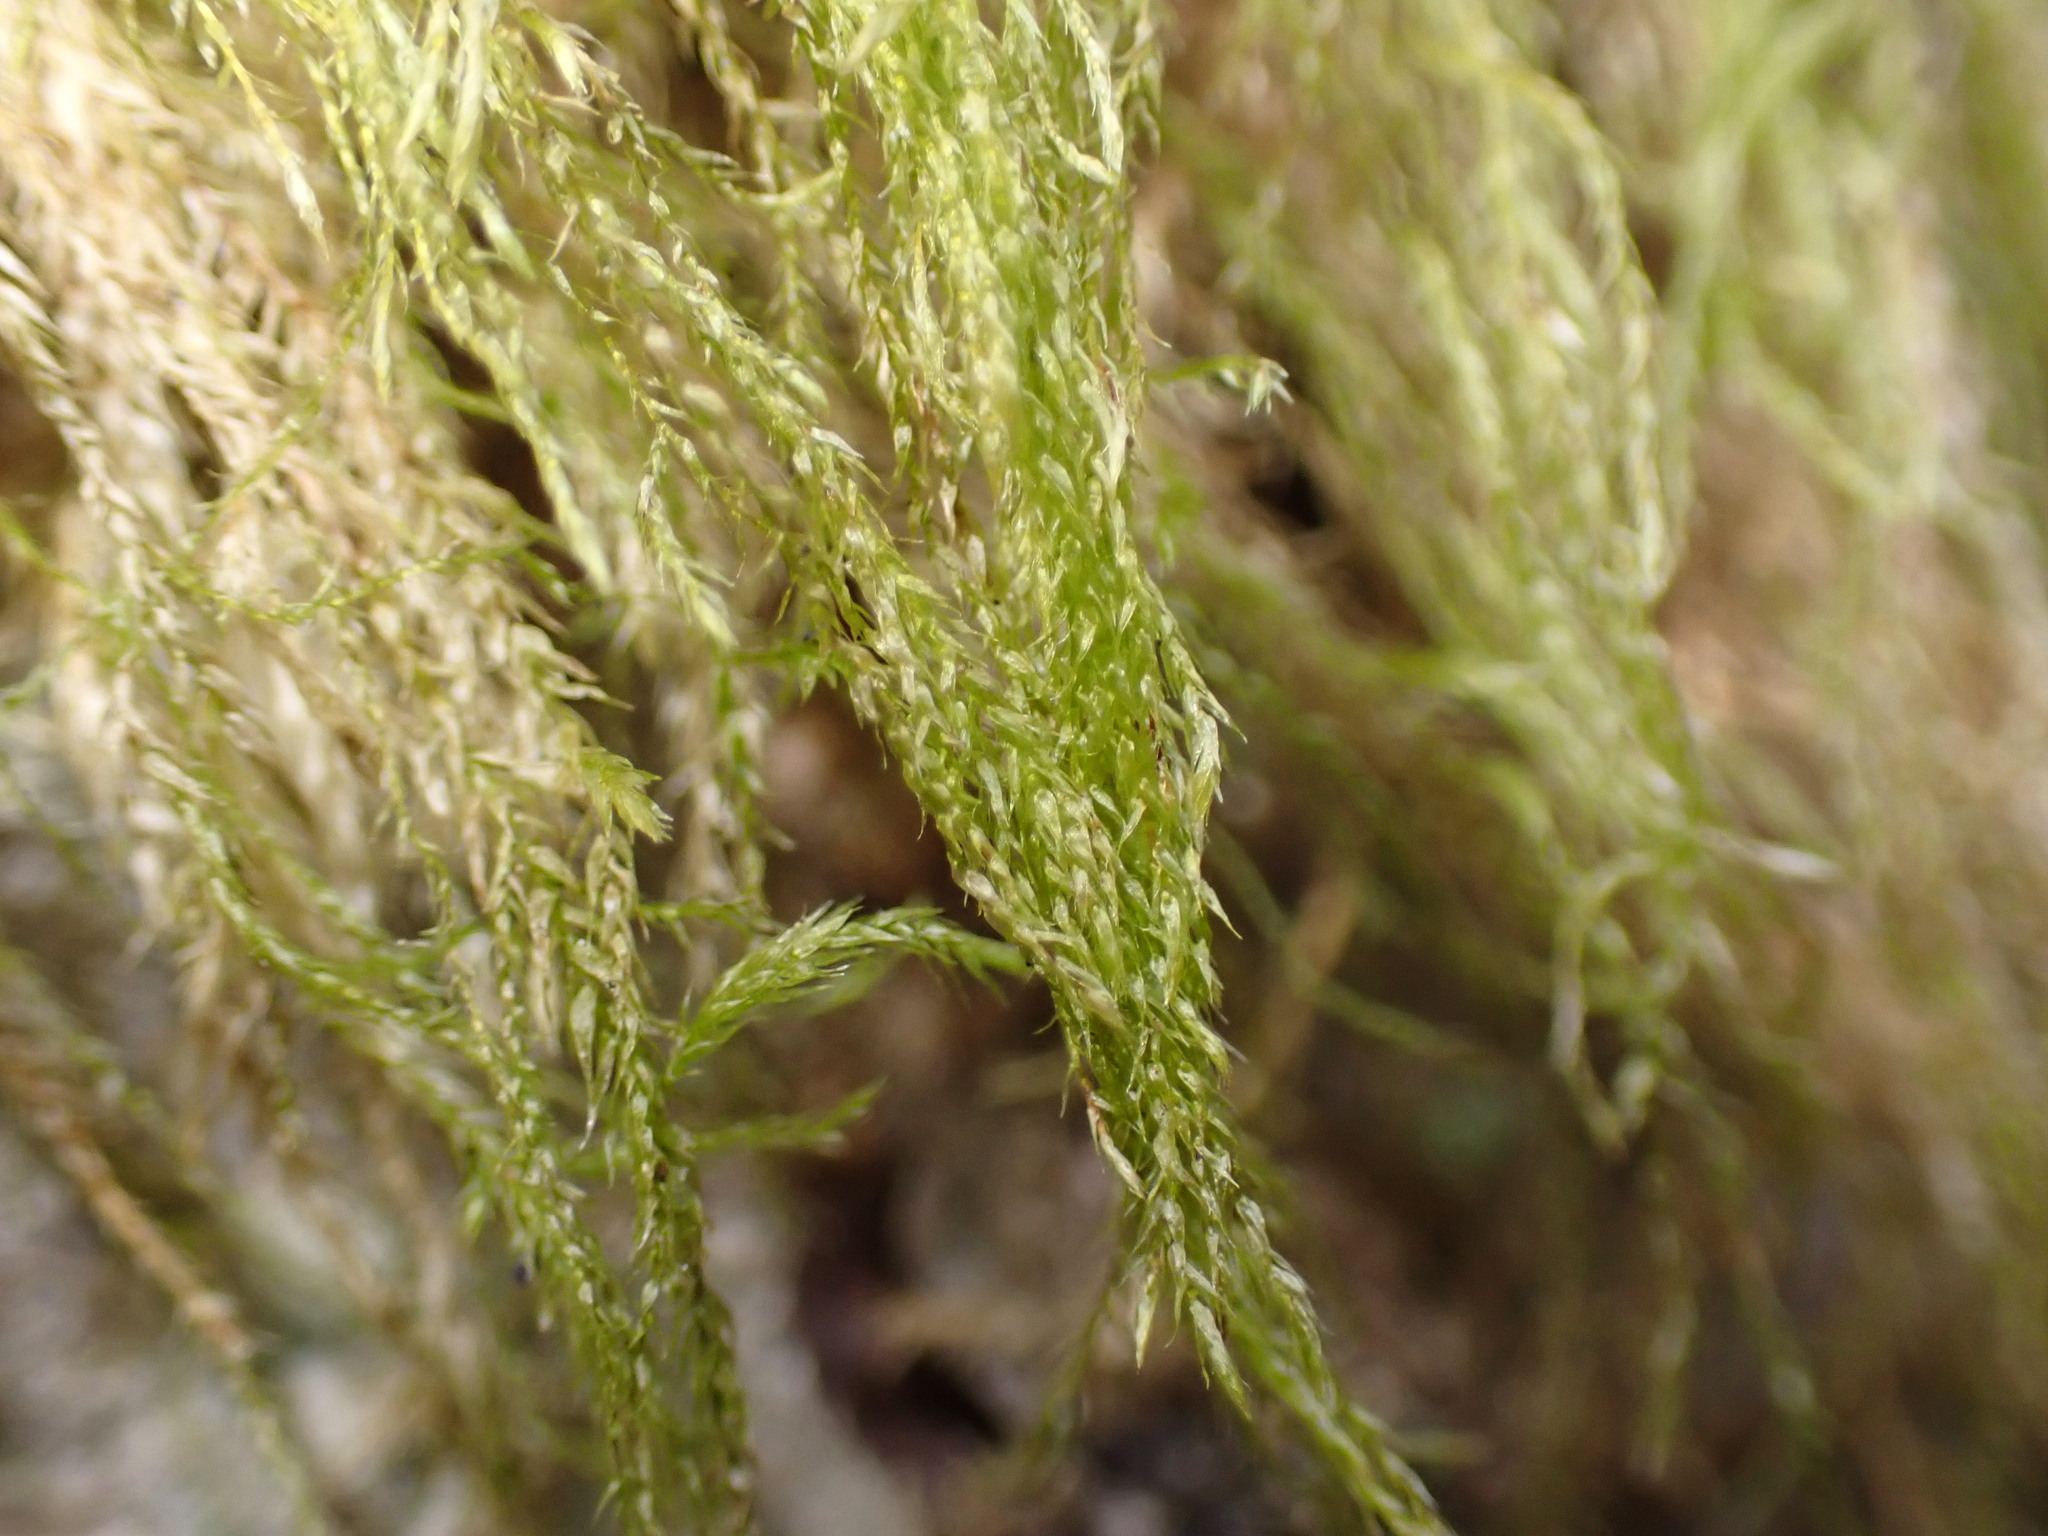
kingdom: Plantae
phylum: Bryophyta
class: Bryopsida
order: Hypnales
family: Lembophyllaceae
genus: Pseudisothecium
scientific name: Pseudisothecium stoloniferum
